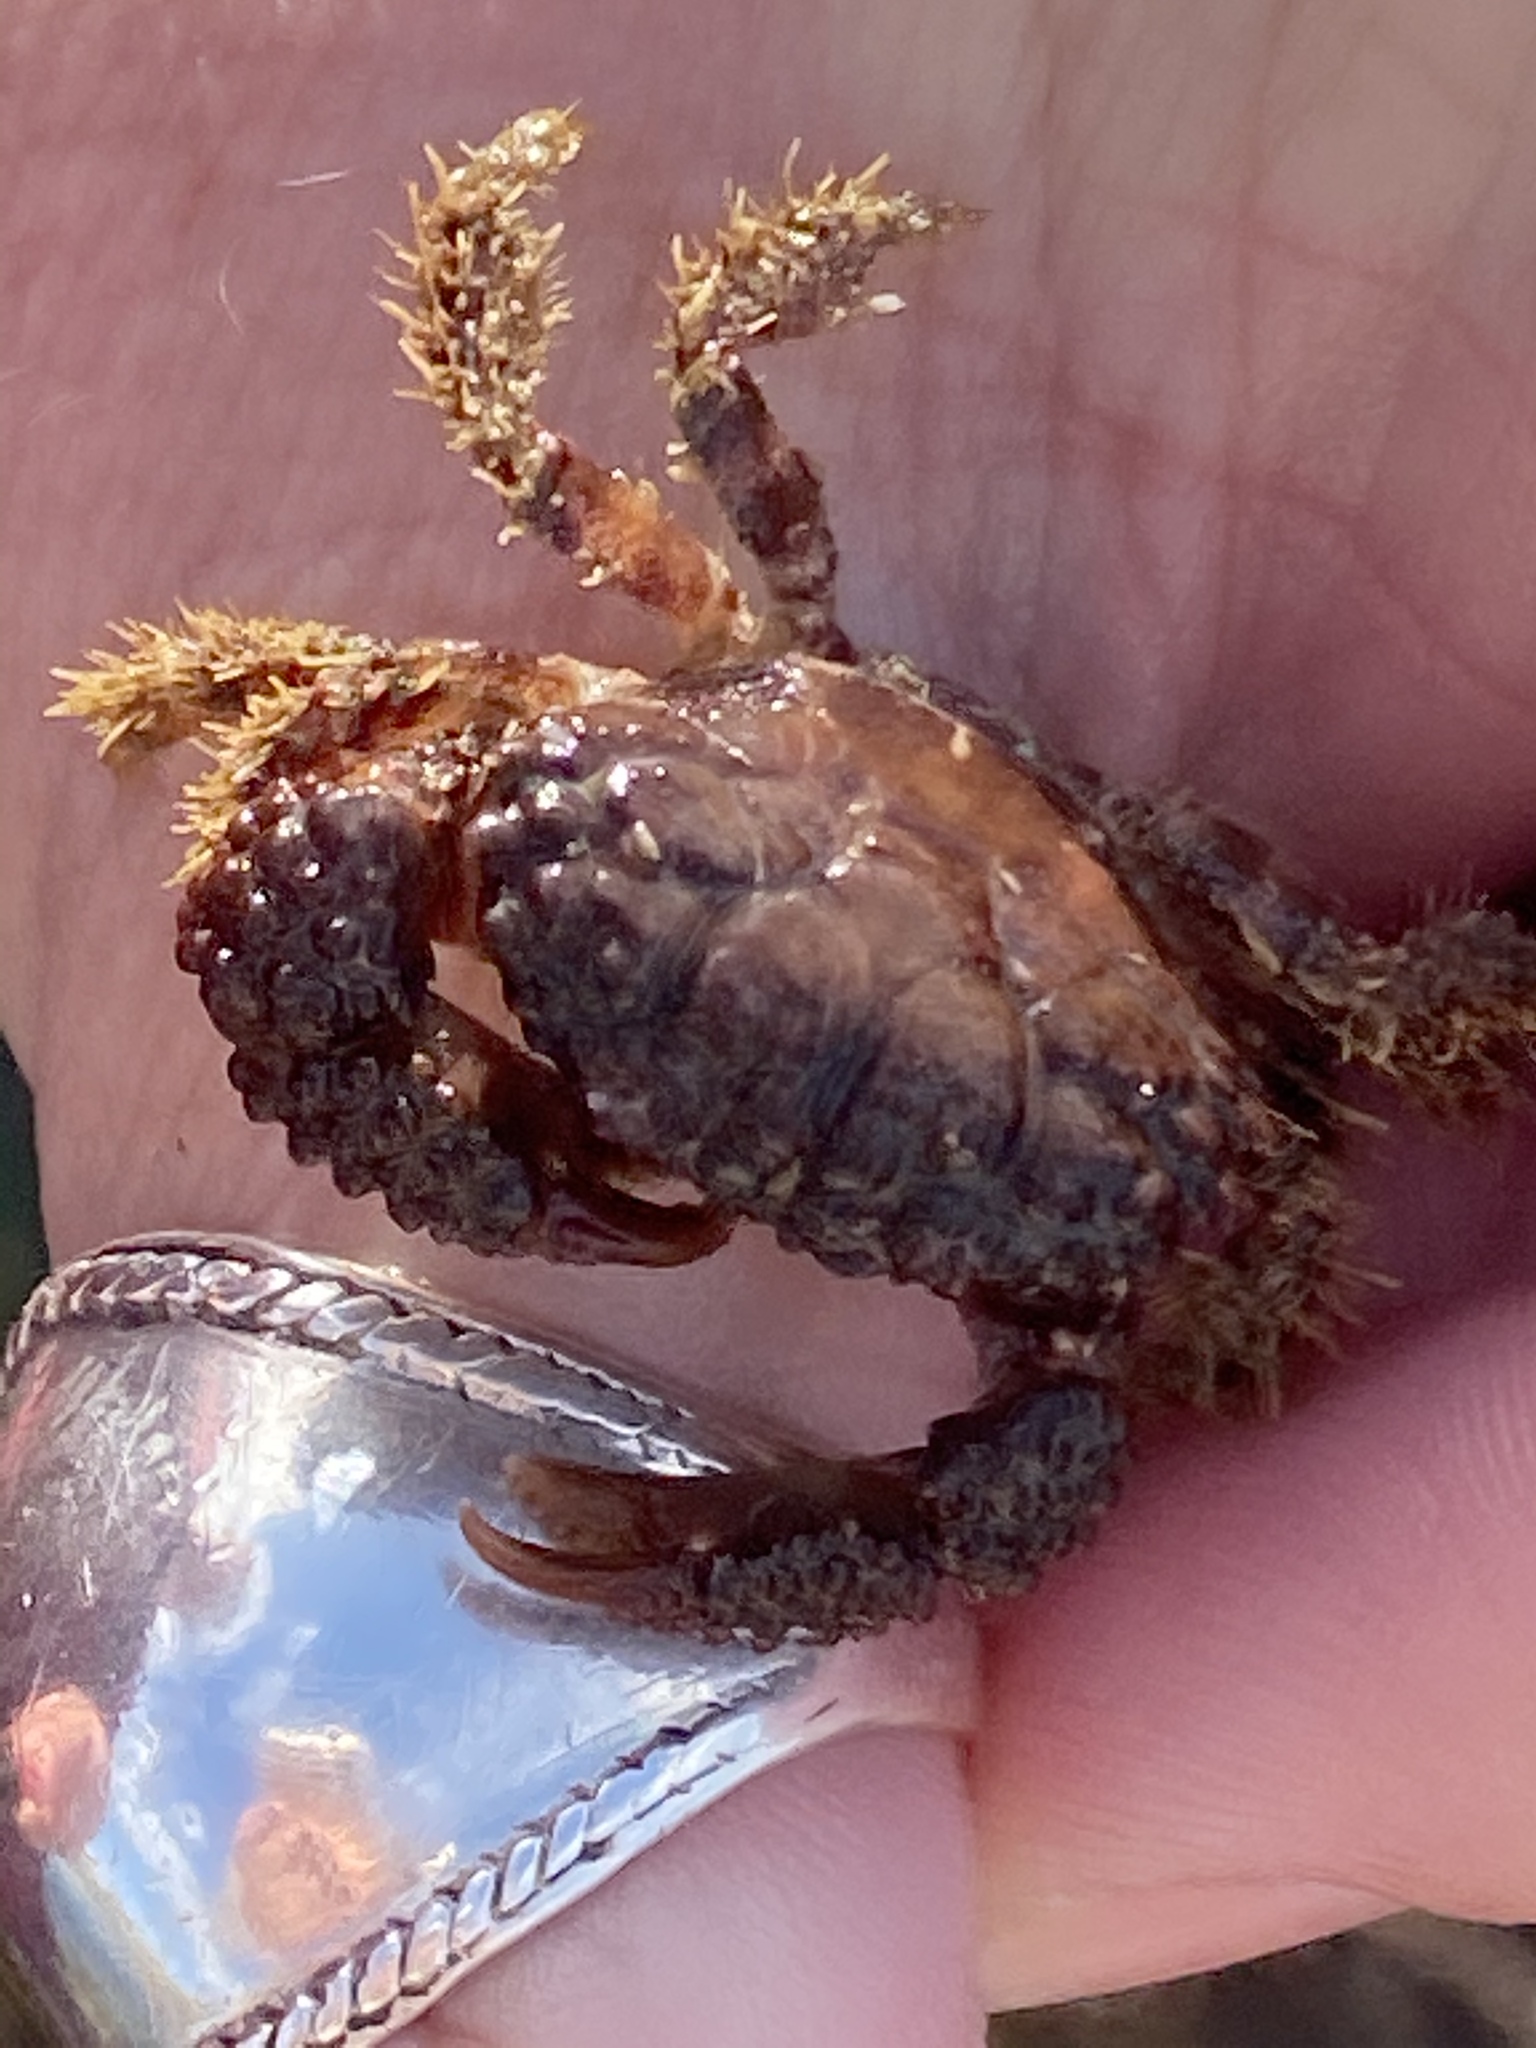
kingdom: Animalia
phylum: Arthropoda
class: Malacostraca
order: Decapoda
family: Xanthidae
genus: Paraxanthias
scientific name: Paraxanthias taylori
